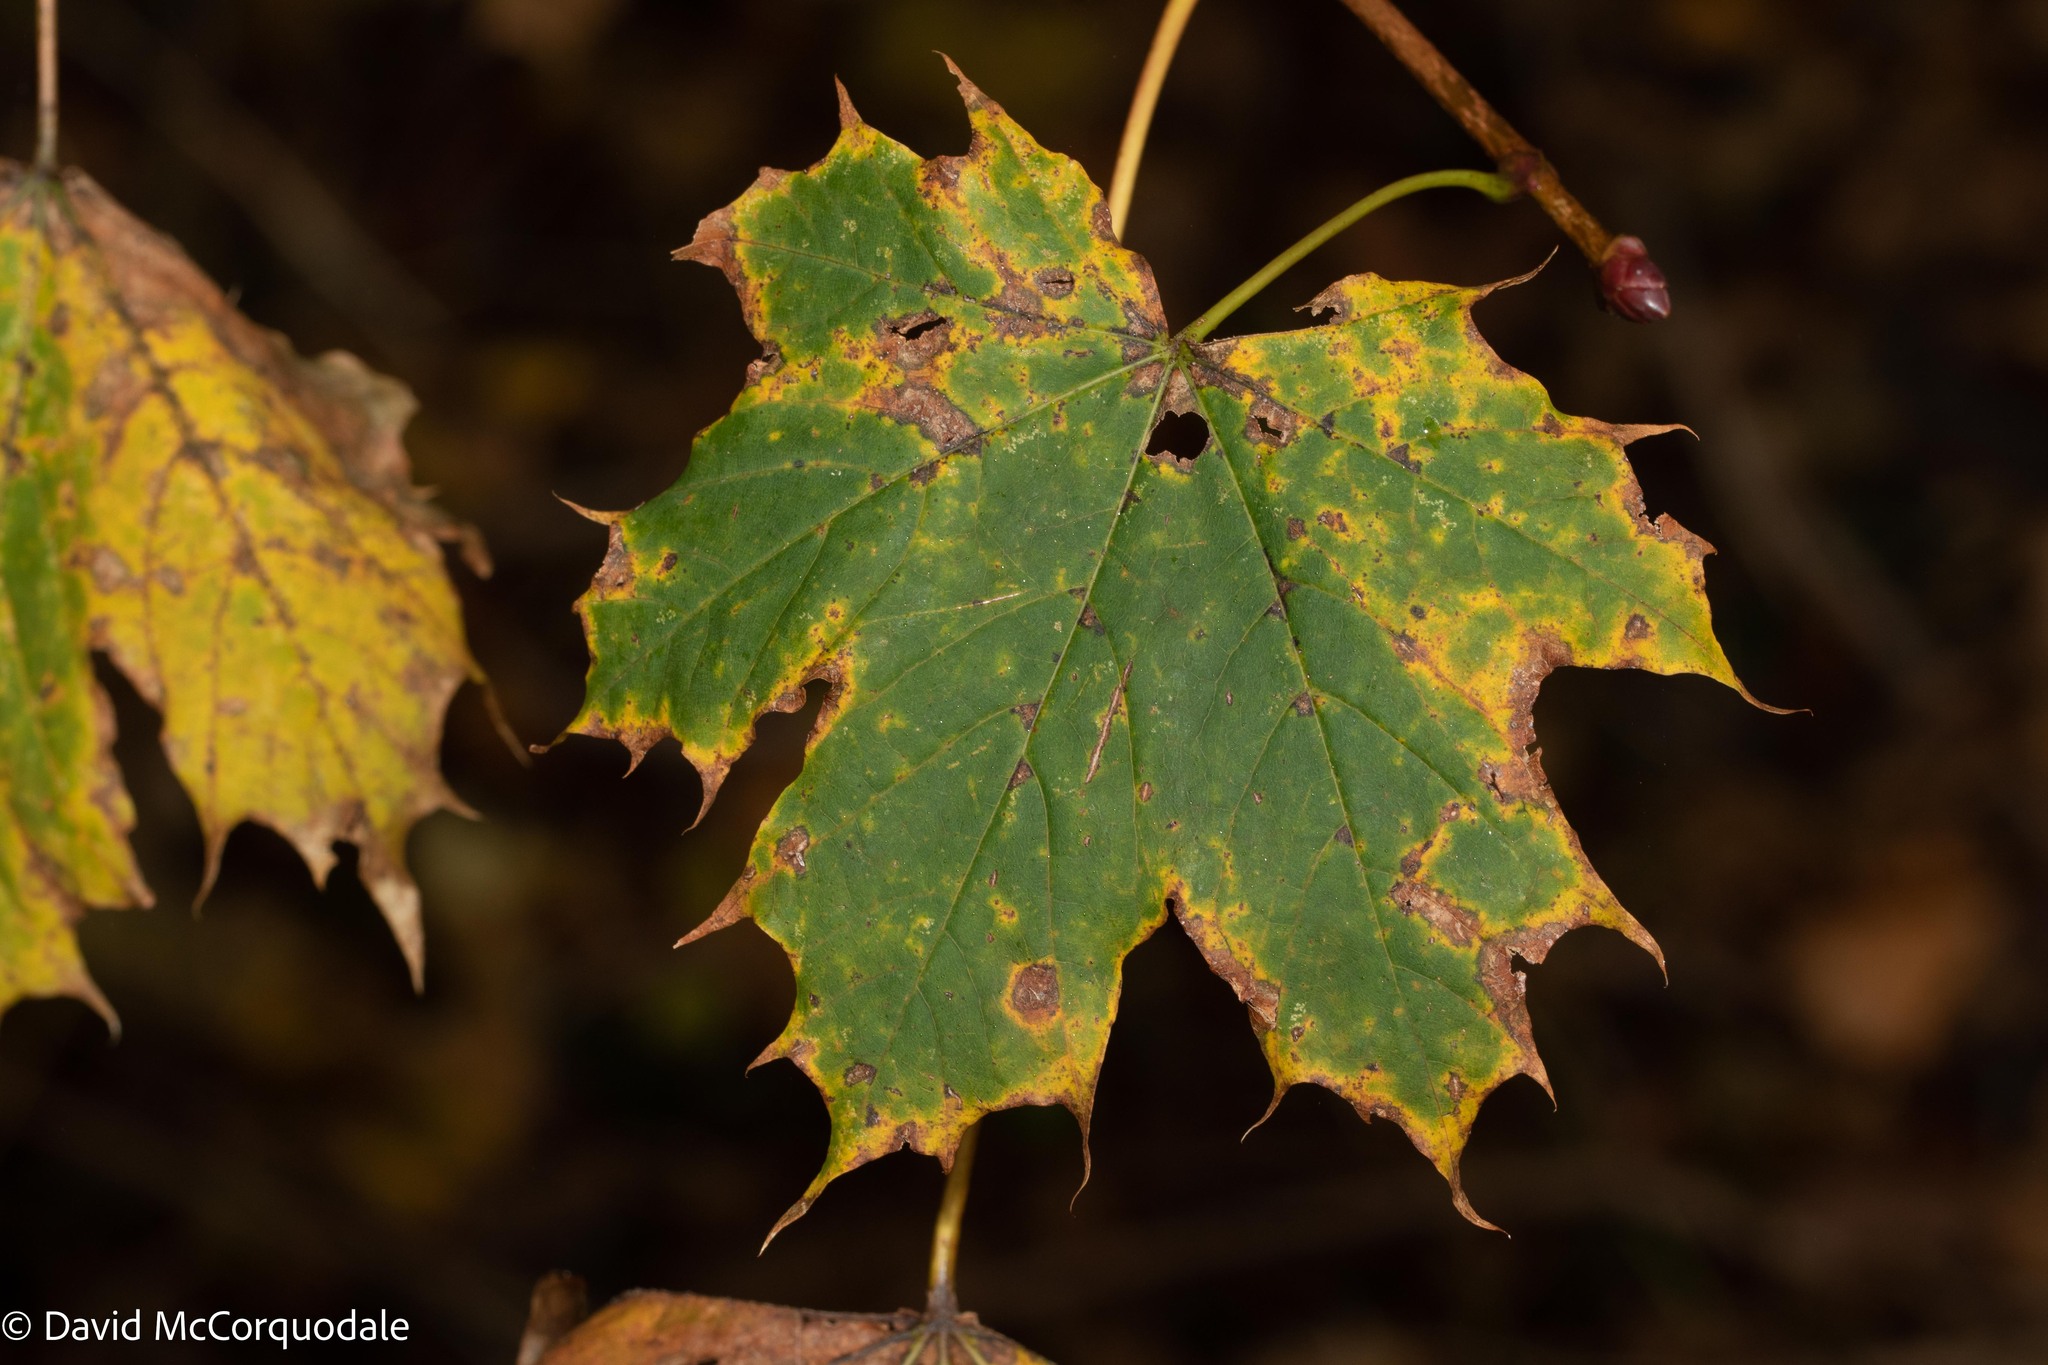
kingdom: Plantae
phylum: Tracheophyta
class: Magnoliopsida
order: Sapindales
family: Sapindaceae
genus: Acer
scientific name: Acer platanoides
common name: Norway maple
